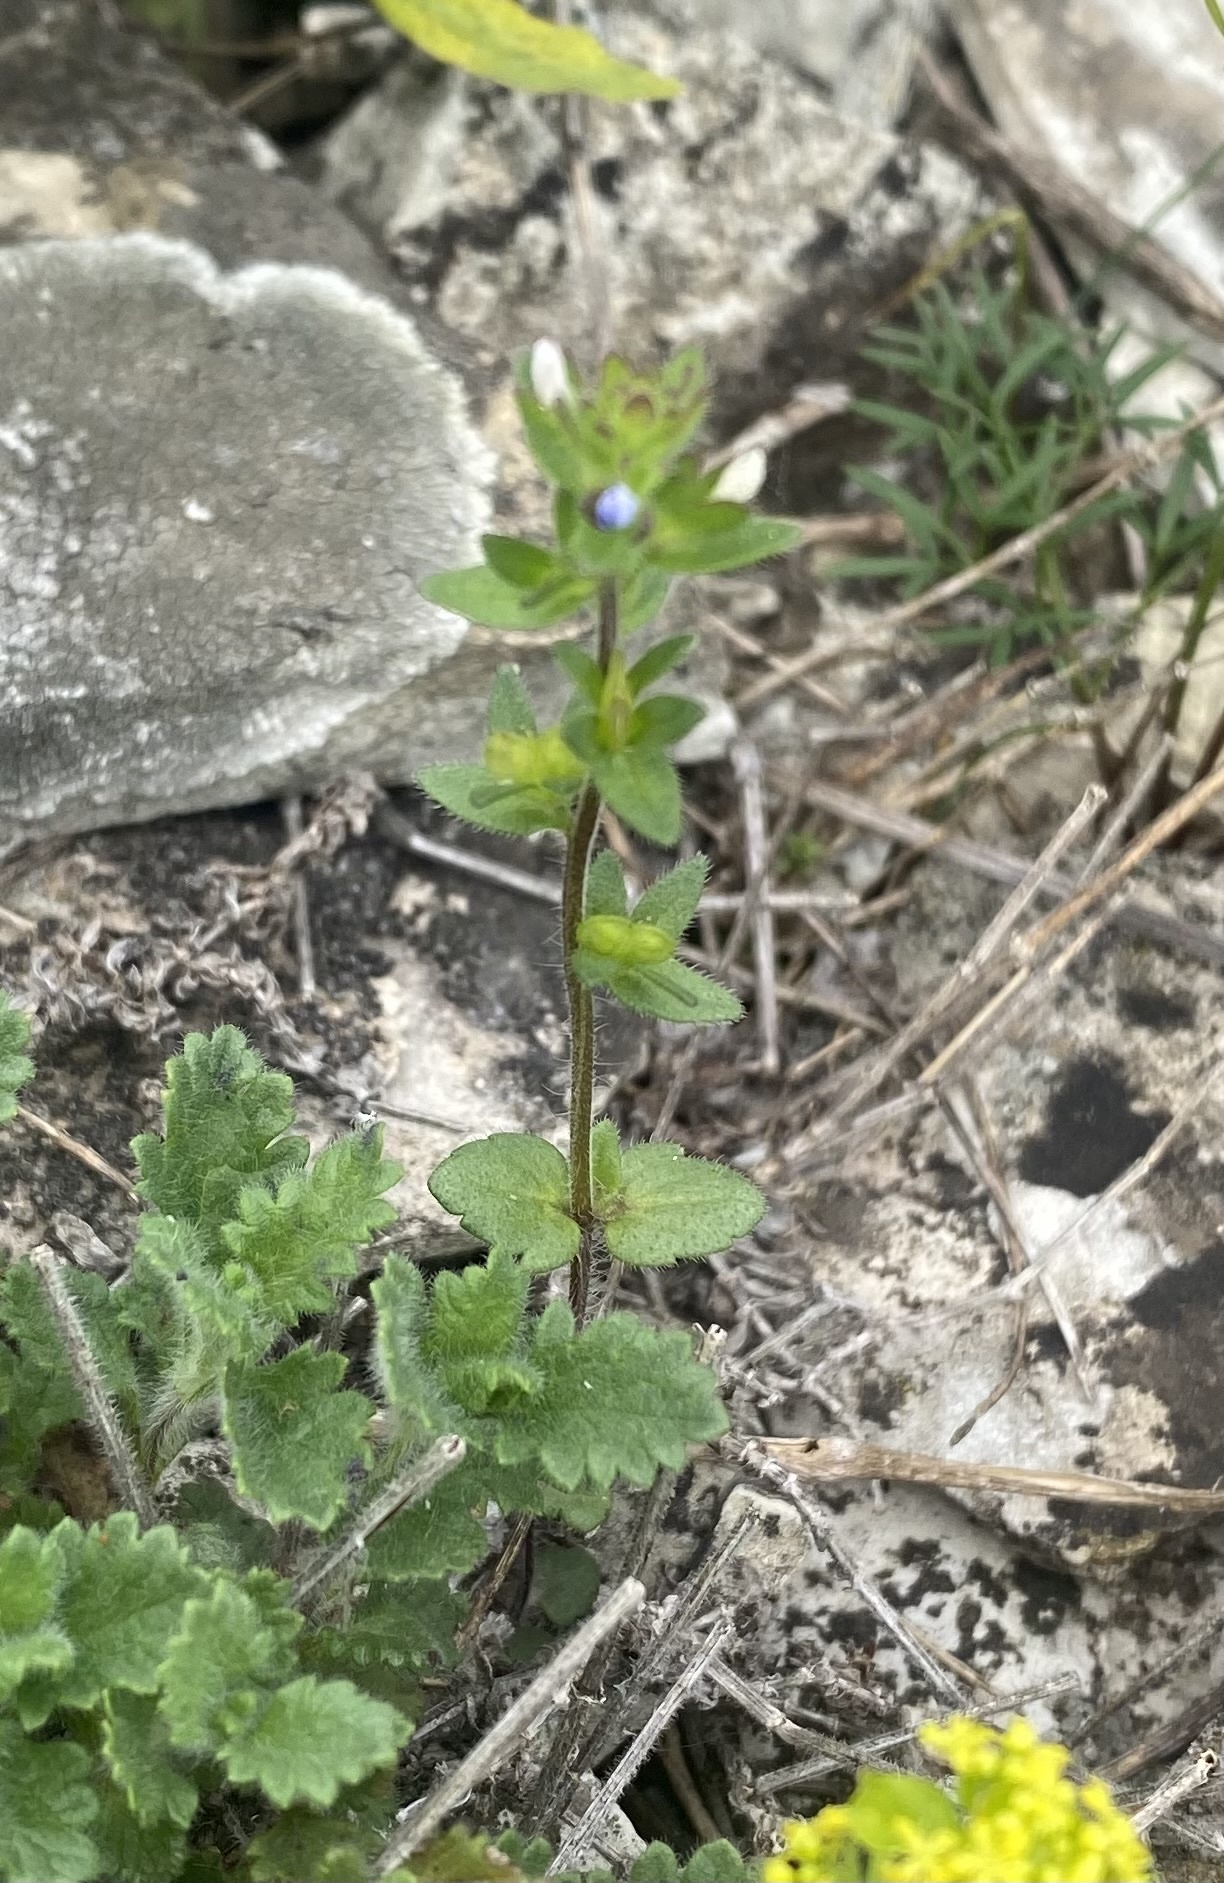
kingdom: Plantae
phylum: Tracheophyta
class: Magnoliopsida
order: Lamiales
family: Plantaginaceae
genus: Veronica
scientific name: Veronica arvensis
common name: Corn speedwell
